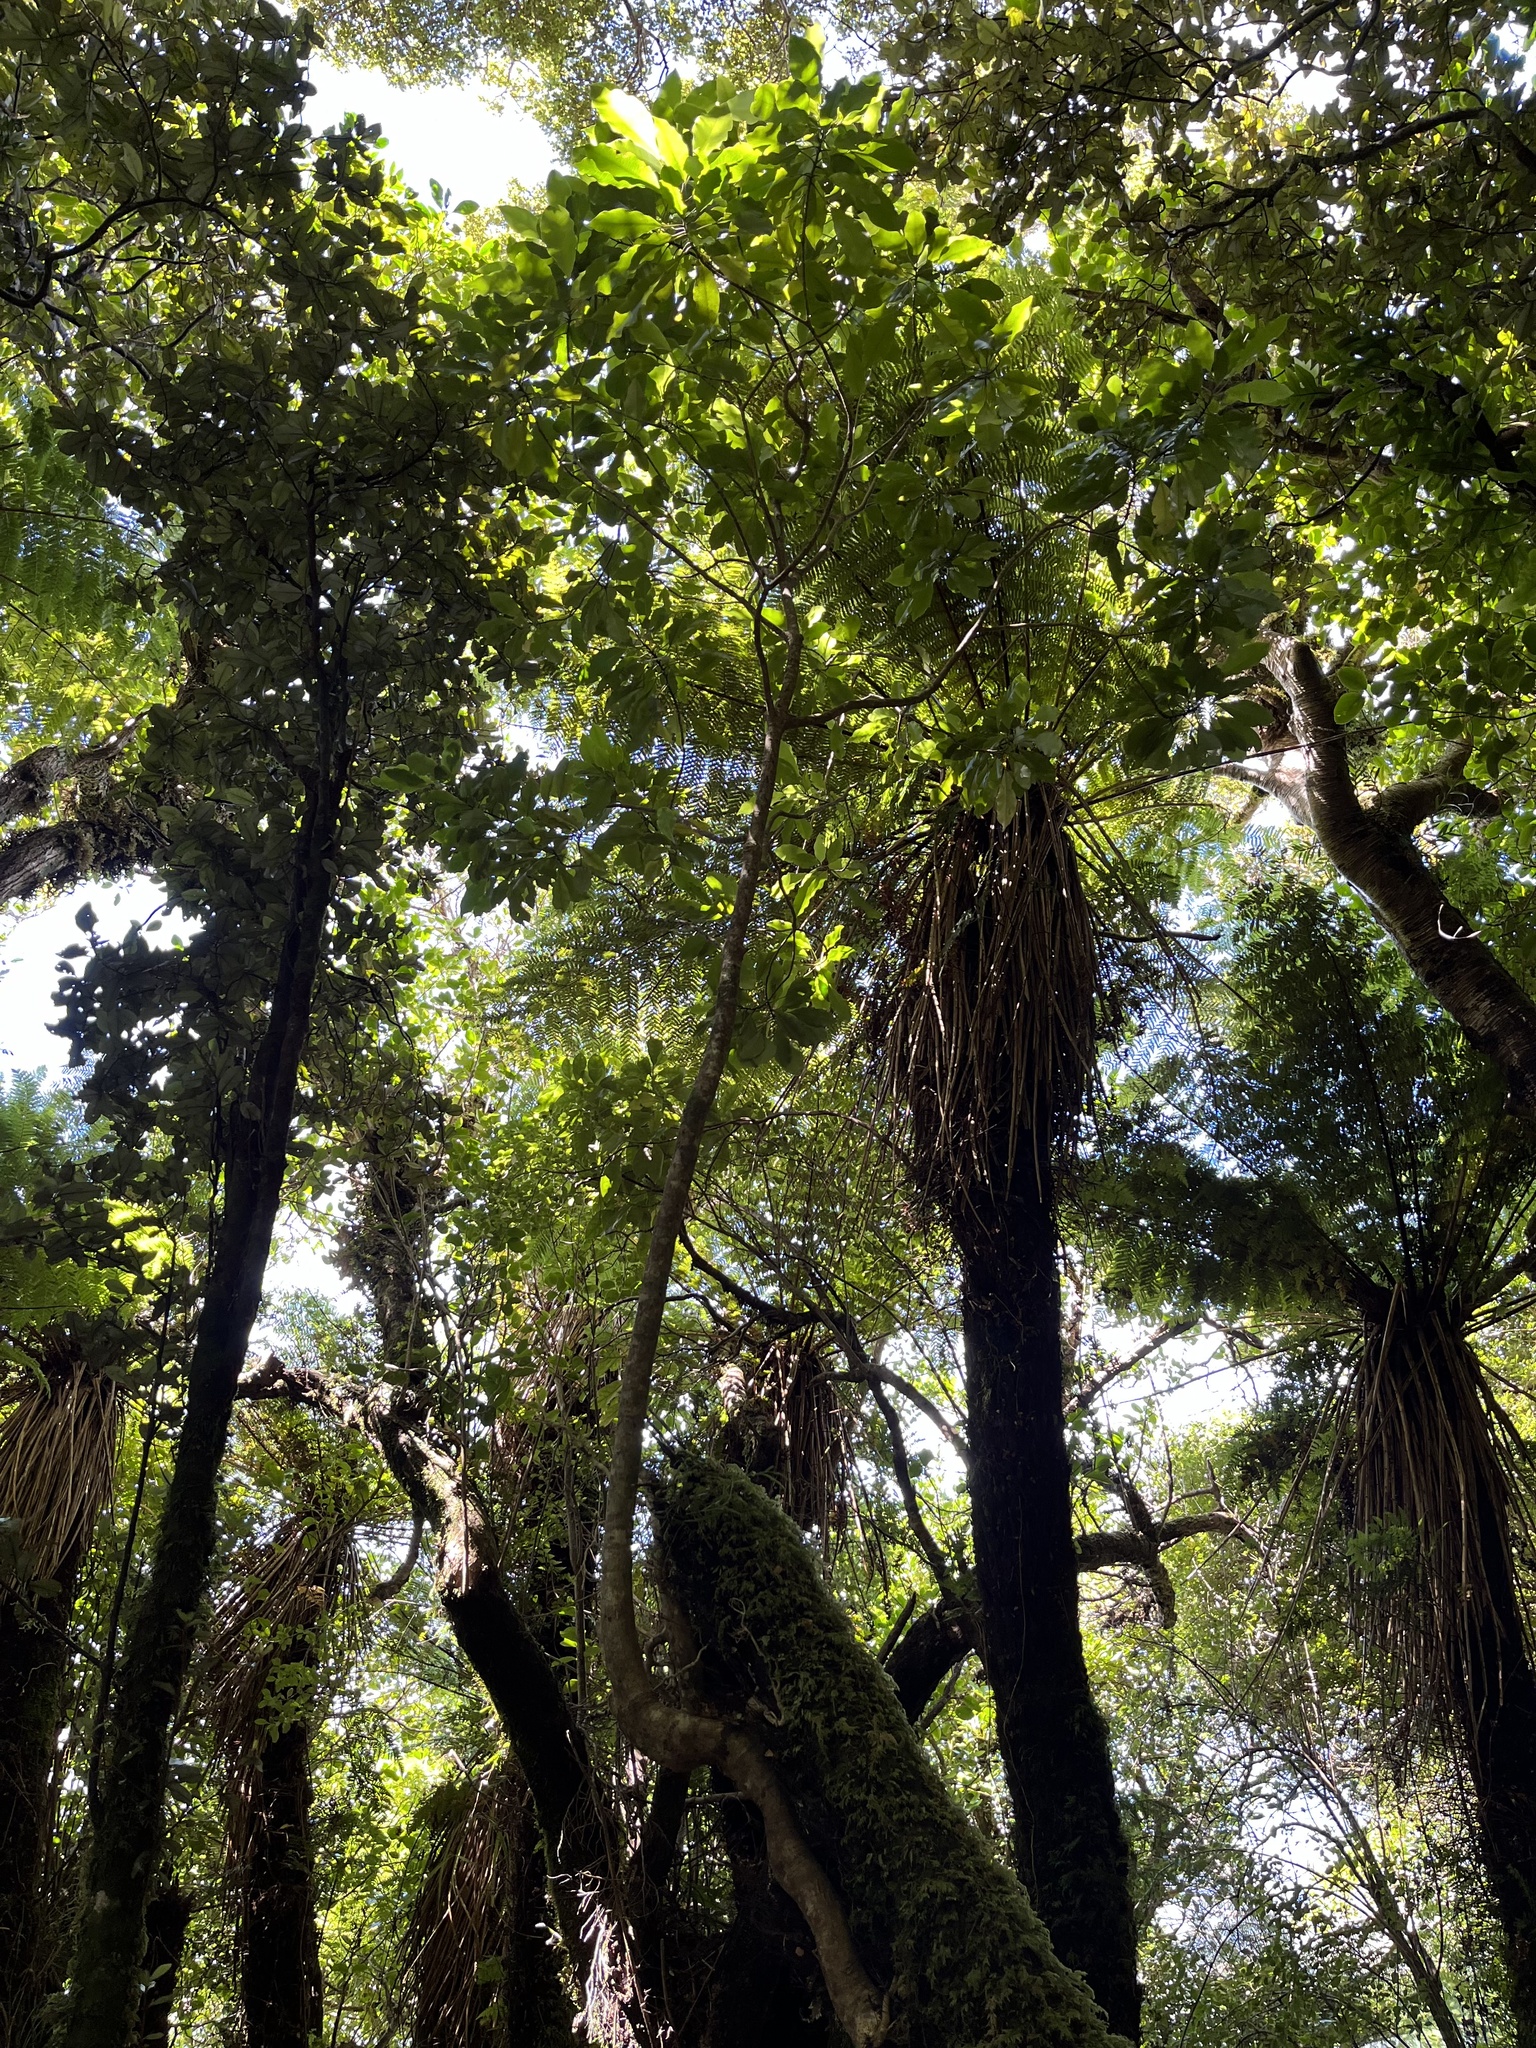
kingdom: Plantae
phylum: Tracheophyta
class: Magnoliopsida
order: Apiales
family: Araliaceae
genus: Raukaua
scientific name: Raukaua edgerleyi
